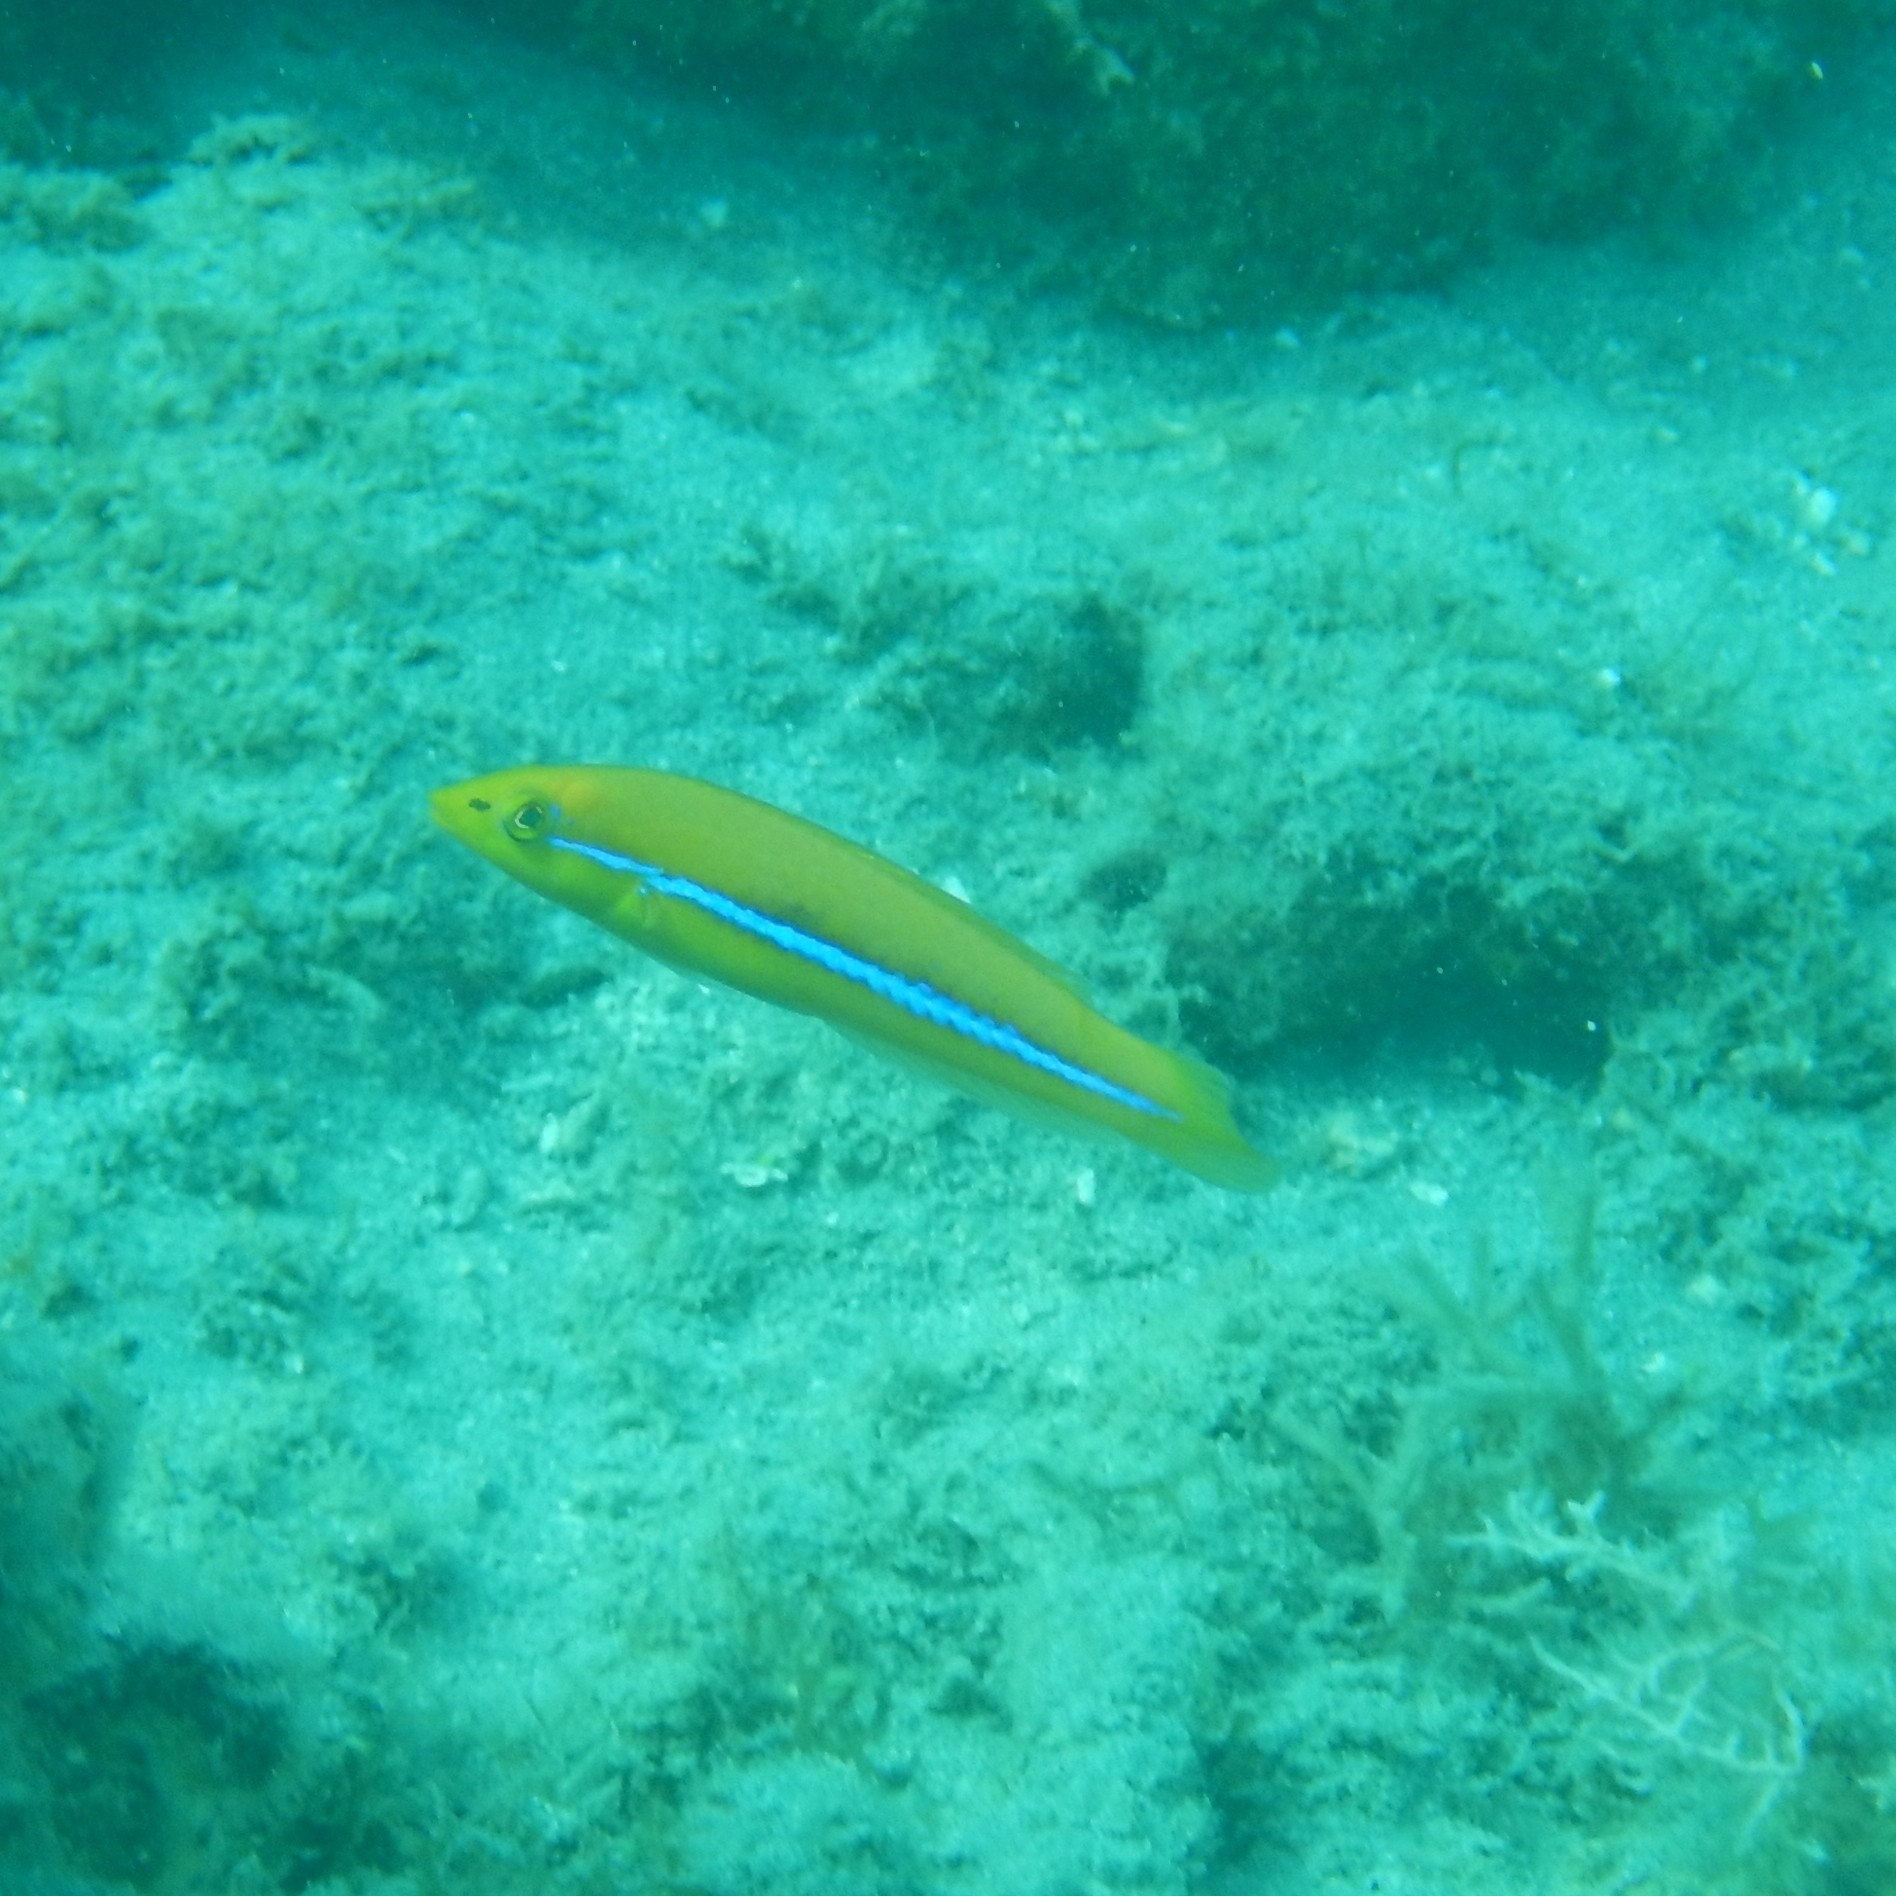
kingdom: Animalia
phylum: Chordata
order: Perciformes
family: Labridae
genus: Halichoeres
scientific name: Halichoeres garnoti
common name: Yellowhead wrasse
